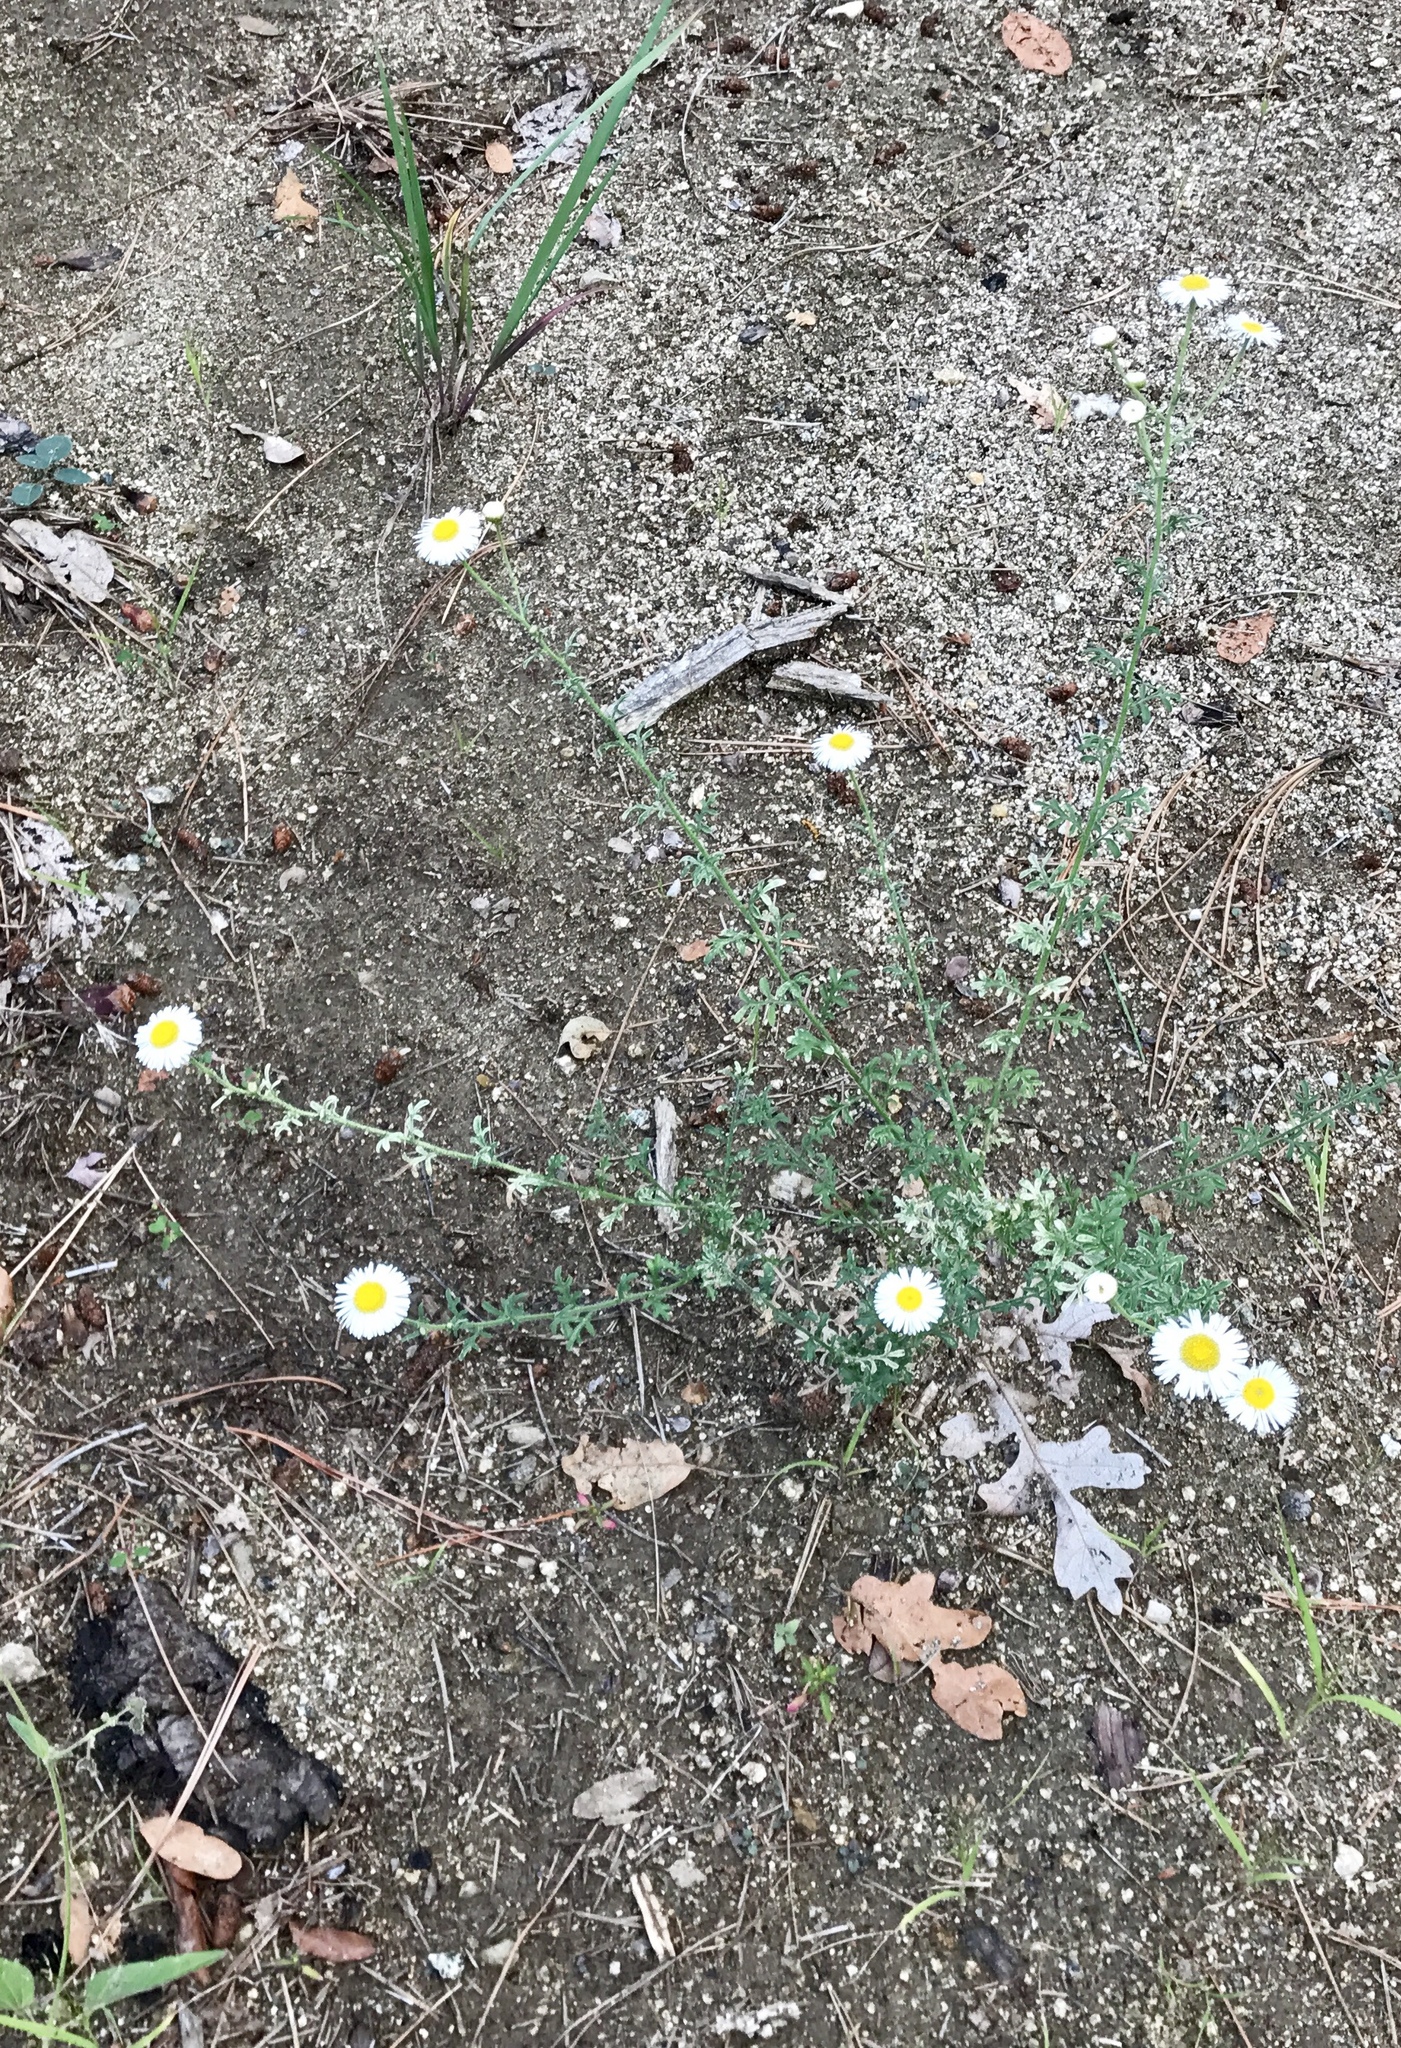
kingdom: Plantae
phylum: Tracheophyta
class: Magnoliopsida
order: Asterales
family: Asteraceae
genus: Erigeron
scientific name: Erigeron oreophilus
